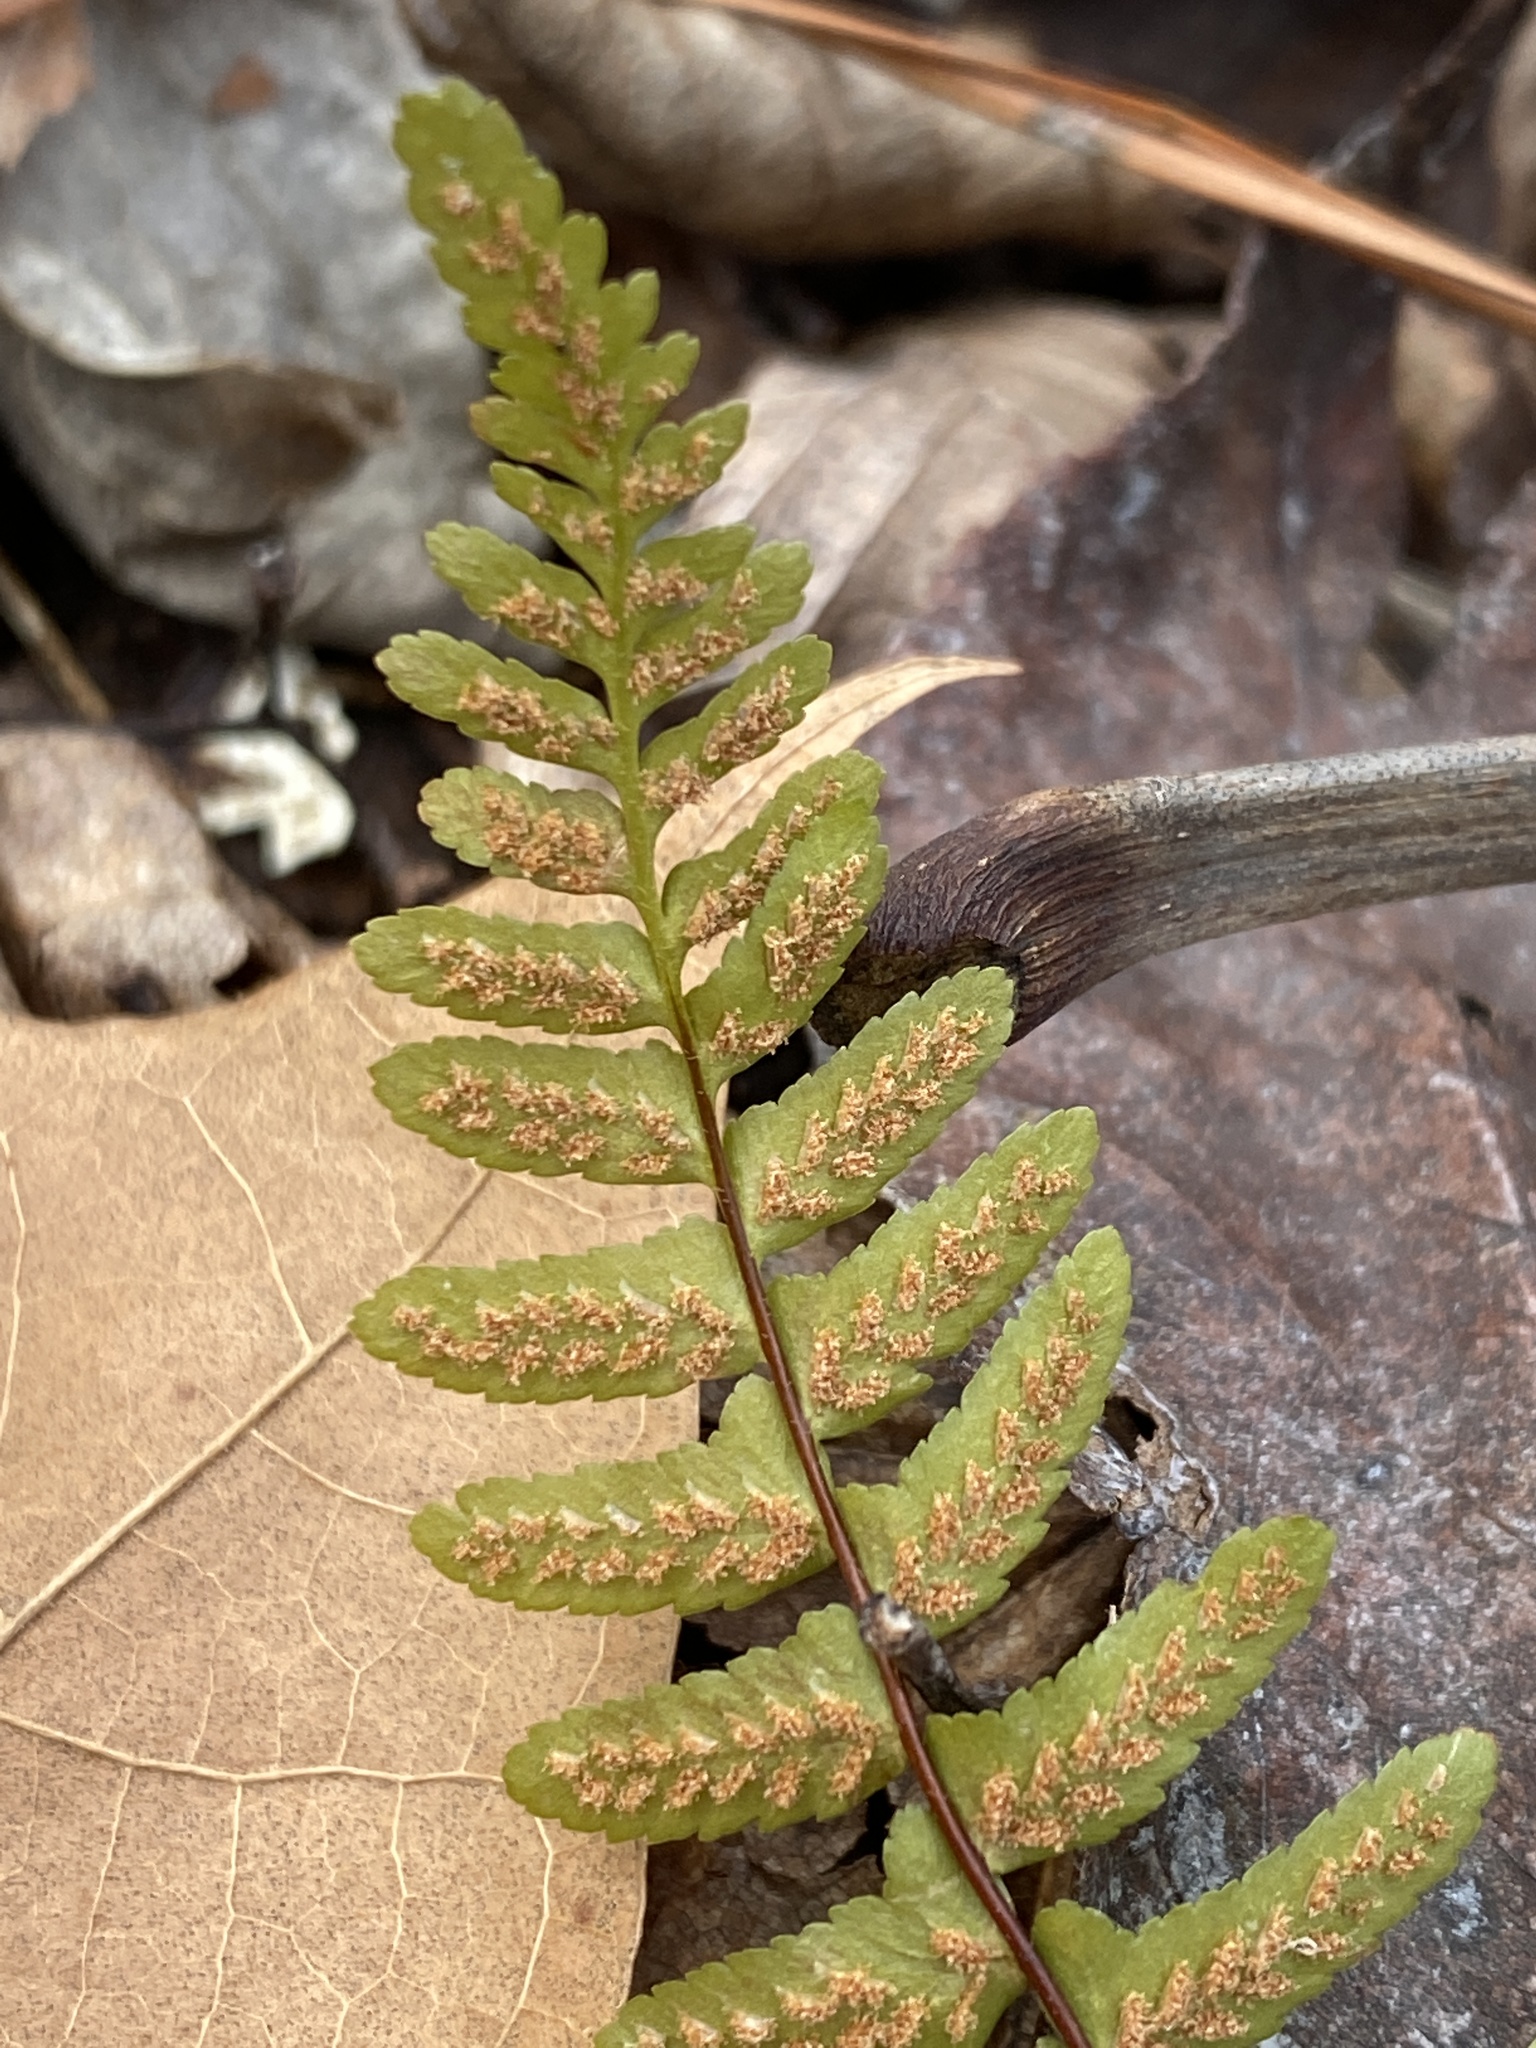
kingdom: Plantae
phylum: Tracheophyta
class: Polypodiopsida
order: Polypodiales
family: Aspleniaceae
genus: Asplenium
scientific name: Asplenium platyneuron
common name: Ebony spleenwort
